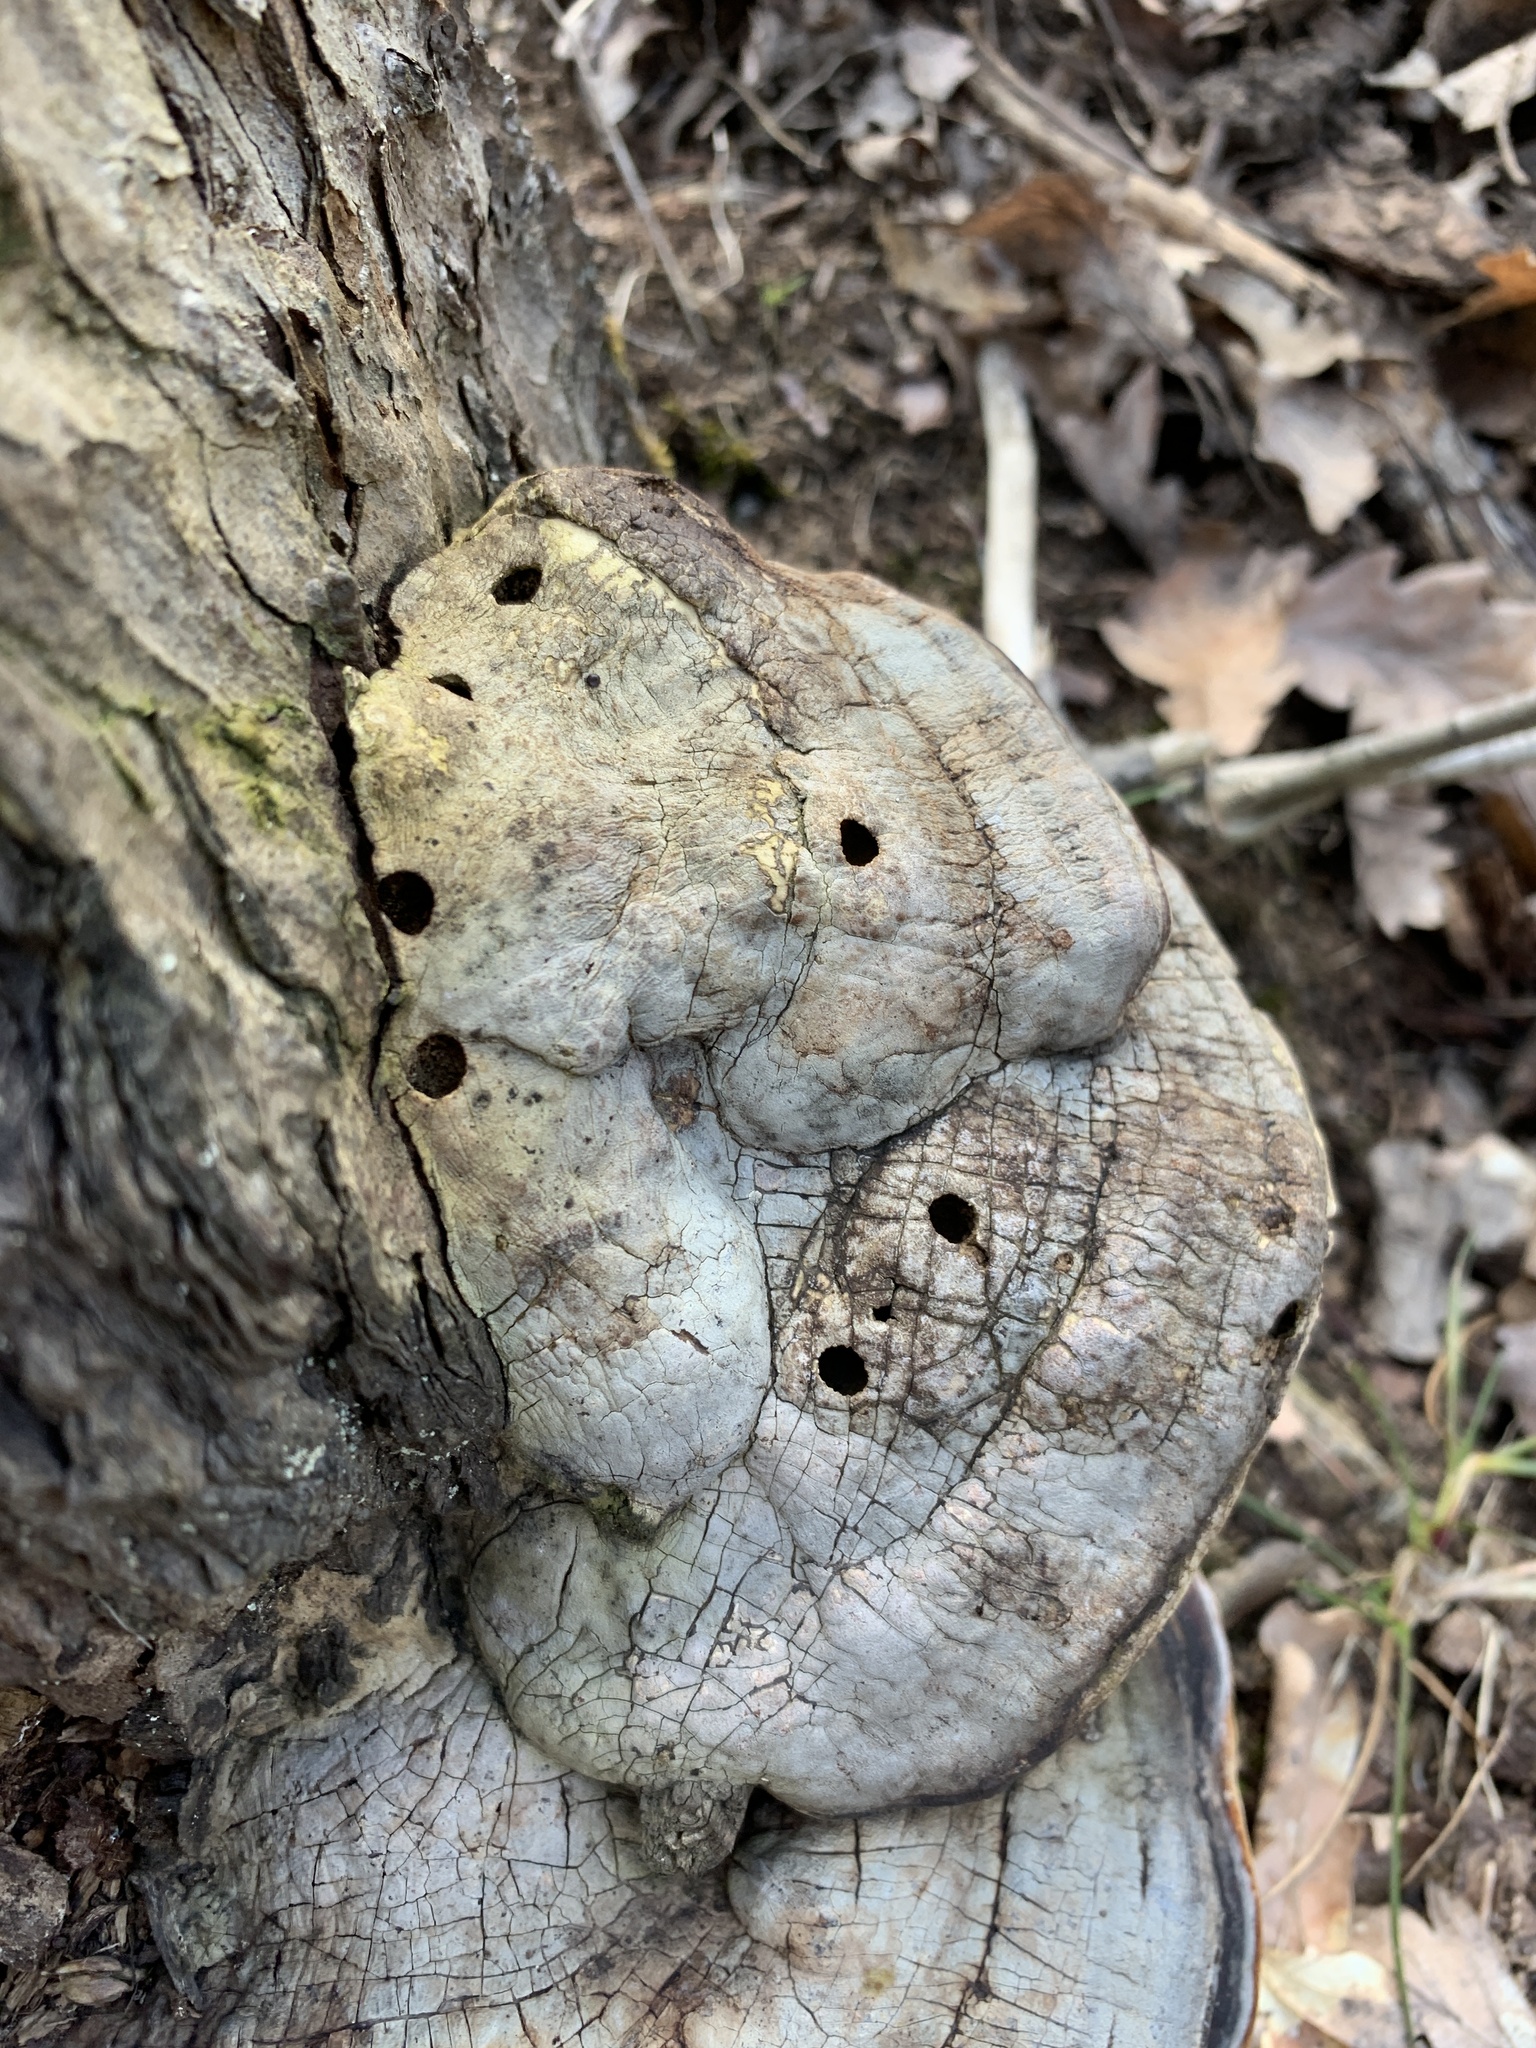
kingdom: Fungi
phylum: Basidiomycota
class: Agaricomycetes
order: Polyporales
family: Fomitopsidaceae
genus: Fomitopsis
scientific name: Fomitopsis pinicola
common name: Red-belted bracket
